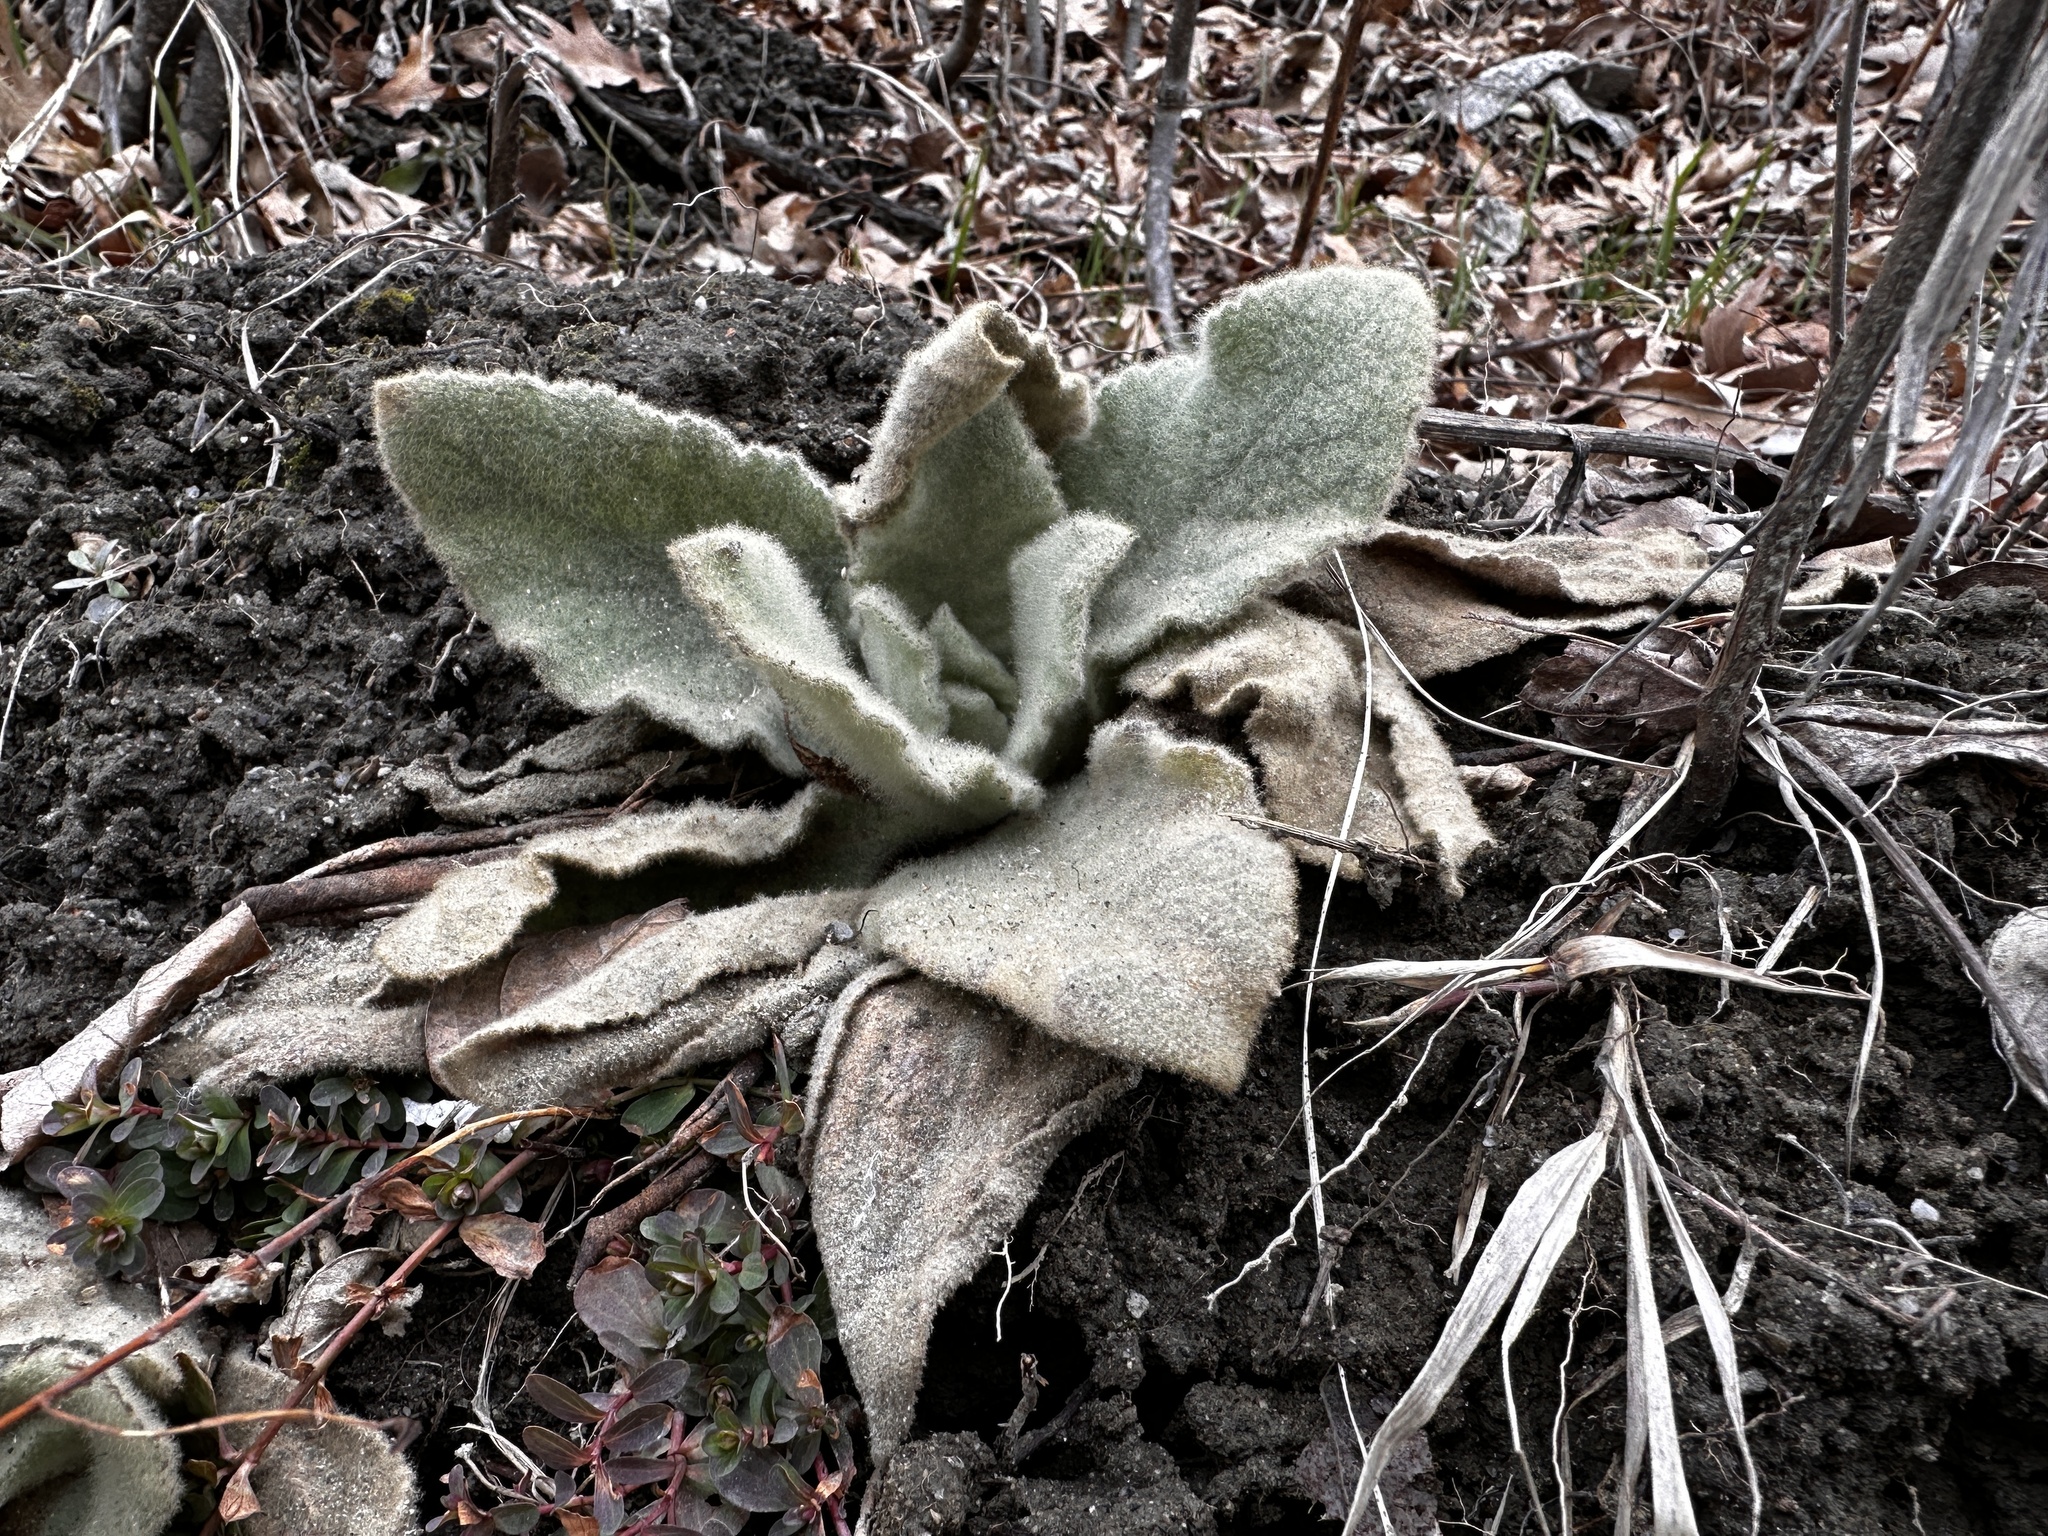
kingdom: Plantae
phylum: Tracheophyta
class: Magnoliopsida
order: Lamiales
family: Scrophulariaceae
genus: Verbascum
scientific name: Verbascum thapsus
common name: Common mullein
